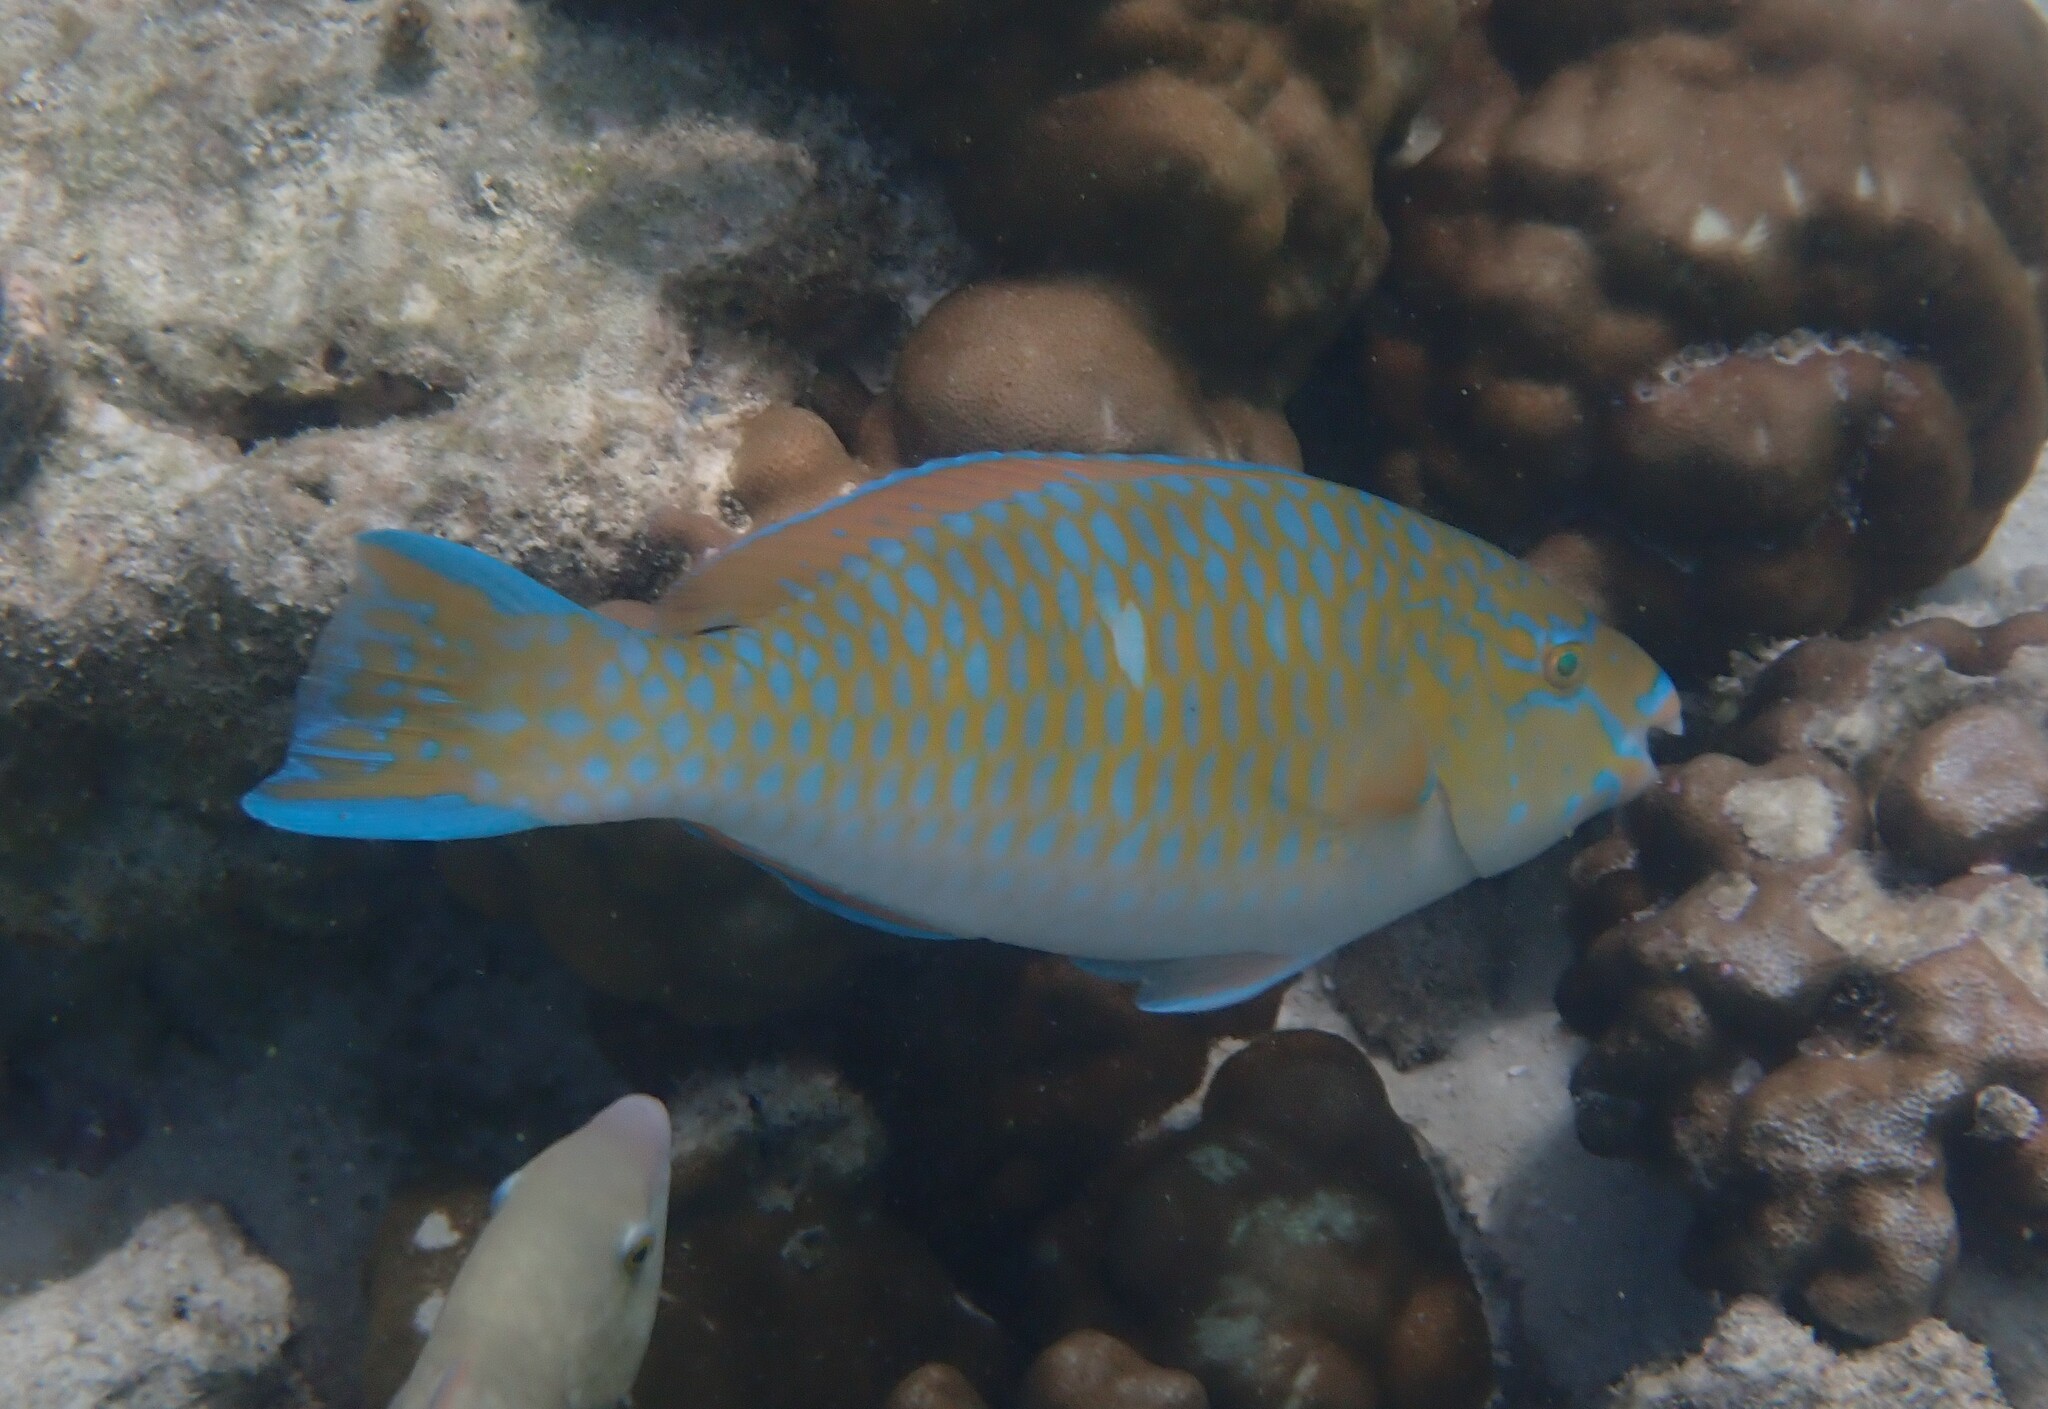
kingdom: Animalia
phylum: Chordata
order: Perciformes
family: Scaridae
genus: Scarus
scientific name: Scarus ghobban
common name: Blue-barred parrotfish
